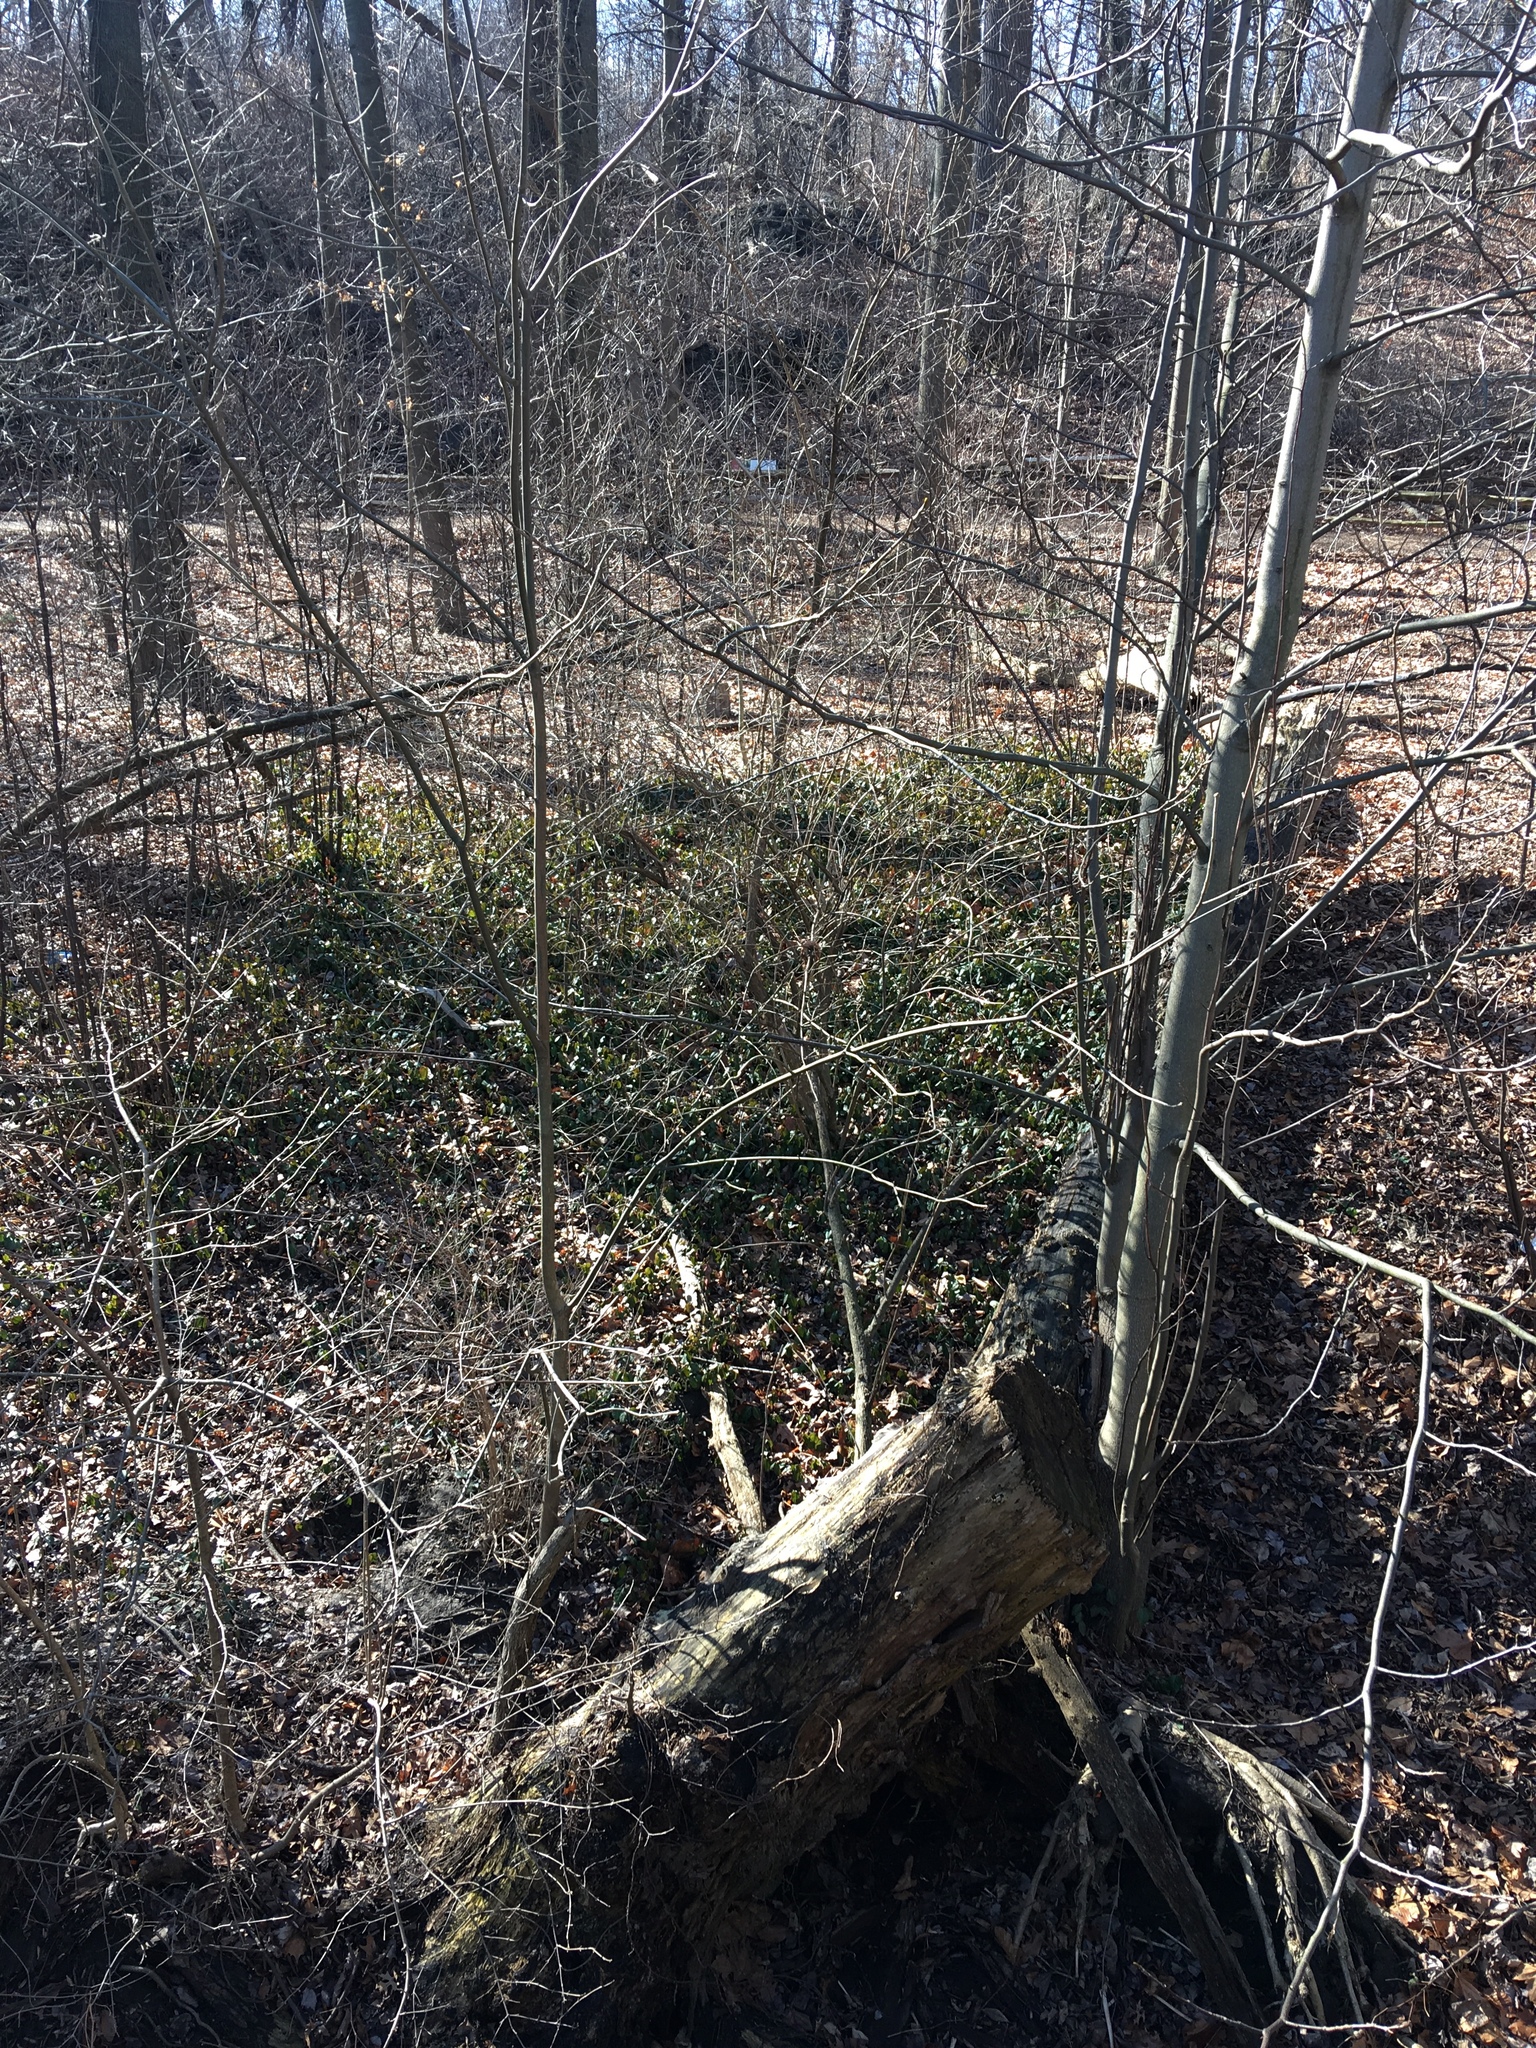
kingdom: Plantae
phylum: Tracheophyta
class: Magnoliopsida
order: Celastrales
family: Celastraceae
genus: Euonymus
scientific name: Euonymus fortunei
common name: Climbing euonymus
